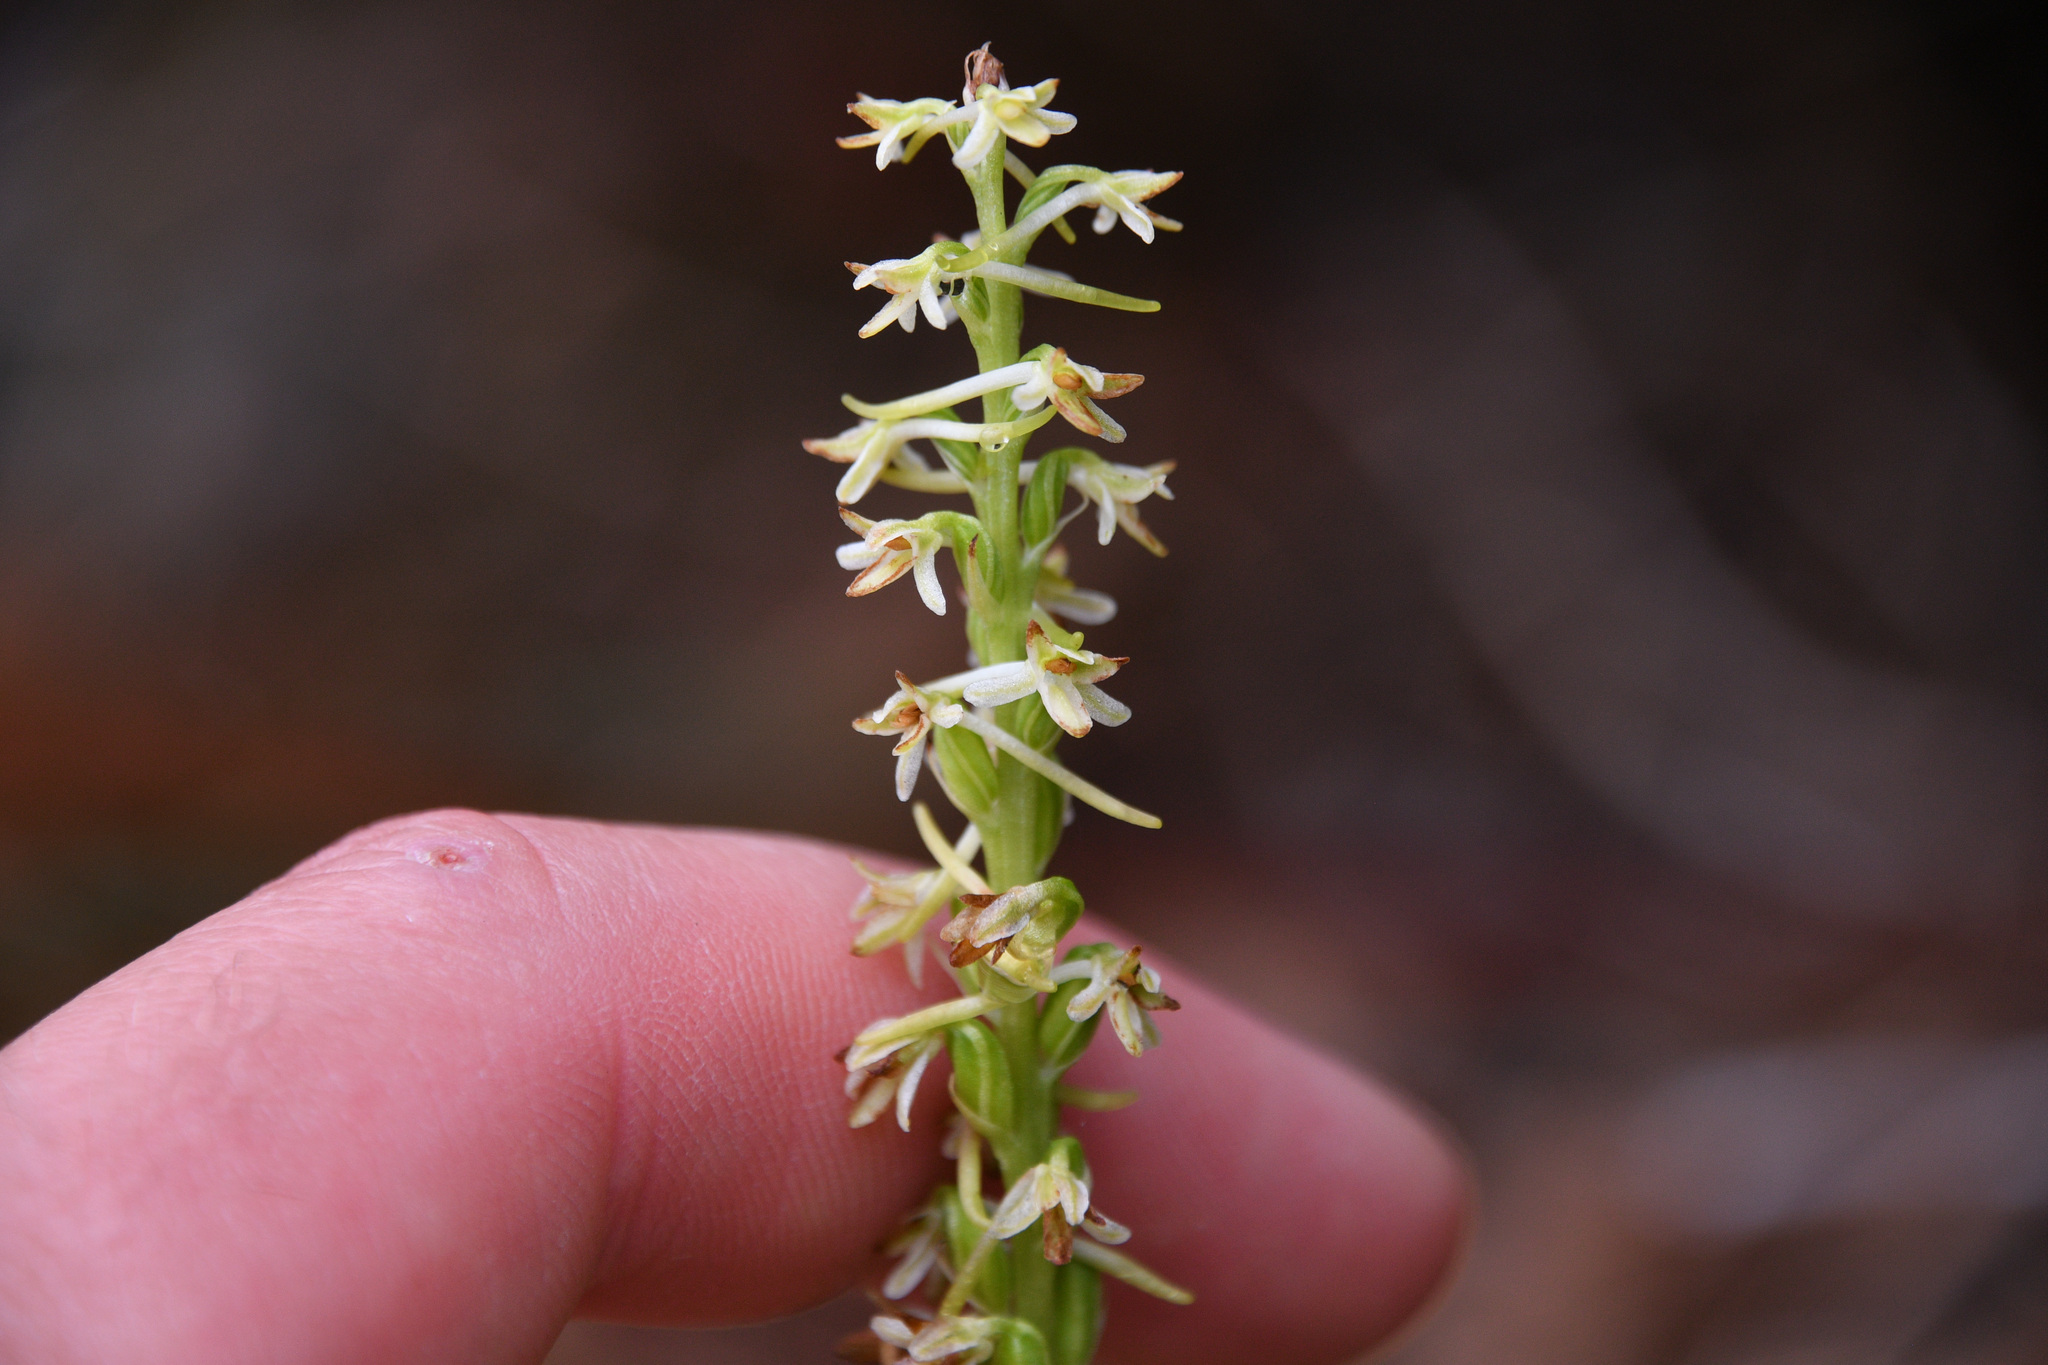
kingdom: Plantae
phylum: Tracheophyta
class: Liliopsida
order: Asparagales
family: Orchidaceae
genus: Platanthera
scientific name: Platanthera transversa
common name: Royal rein orchid
